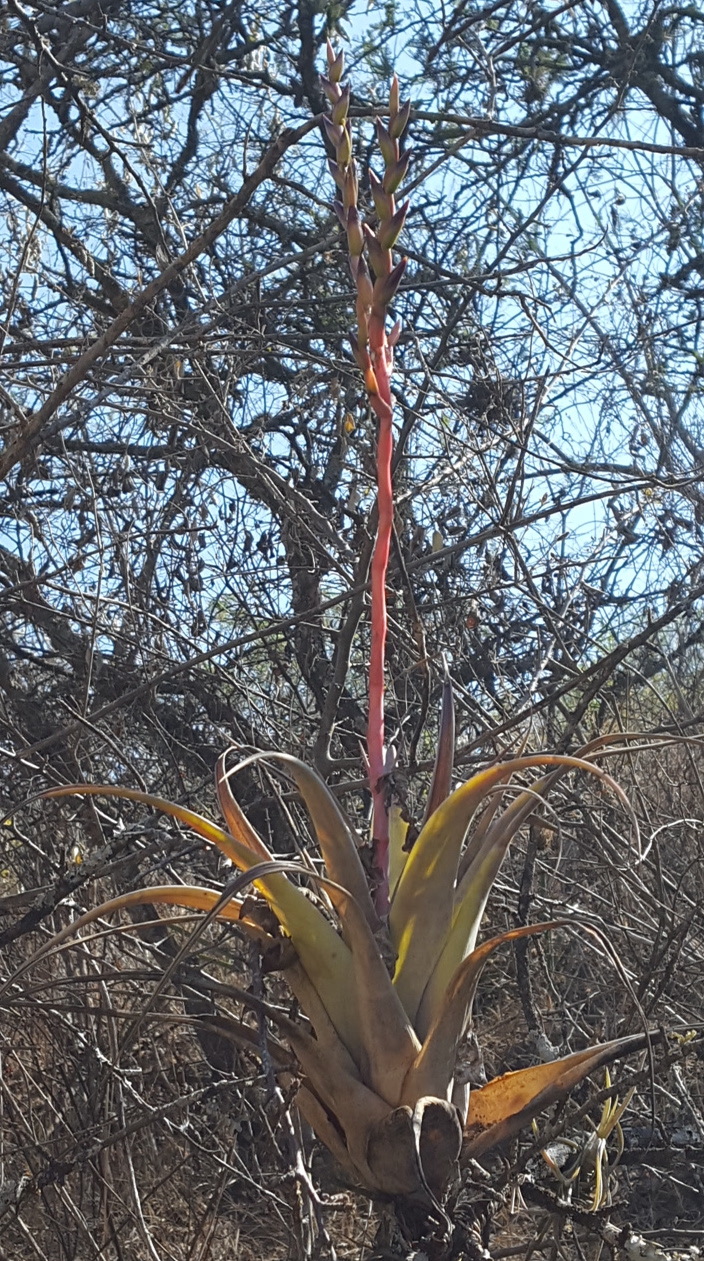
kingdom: Plantae
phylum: Tracheophyta
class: Liliopsida
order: Poales
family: Bromeliaceae
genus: Tillandsia
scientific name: Tillandsia makoyana
